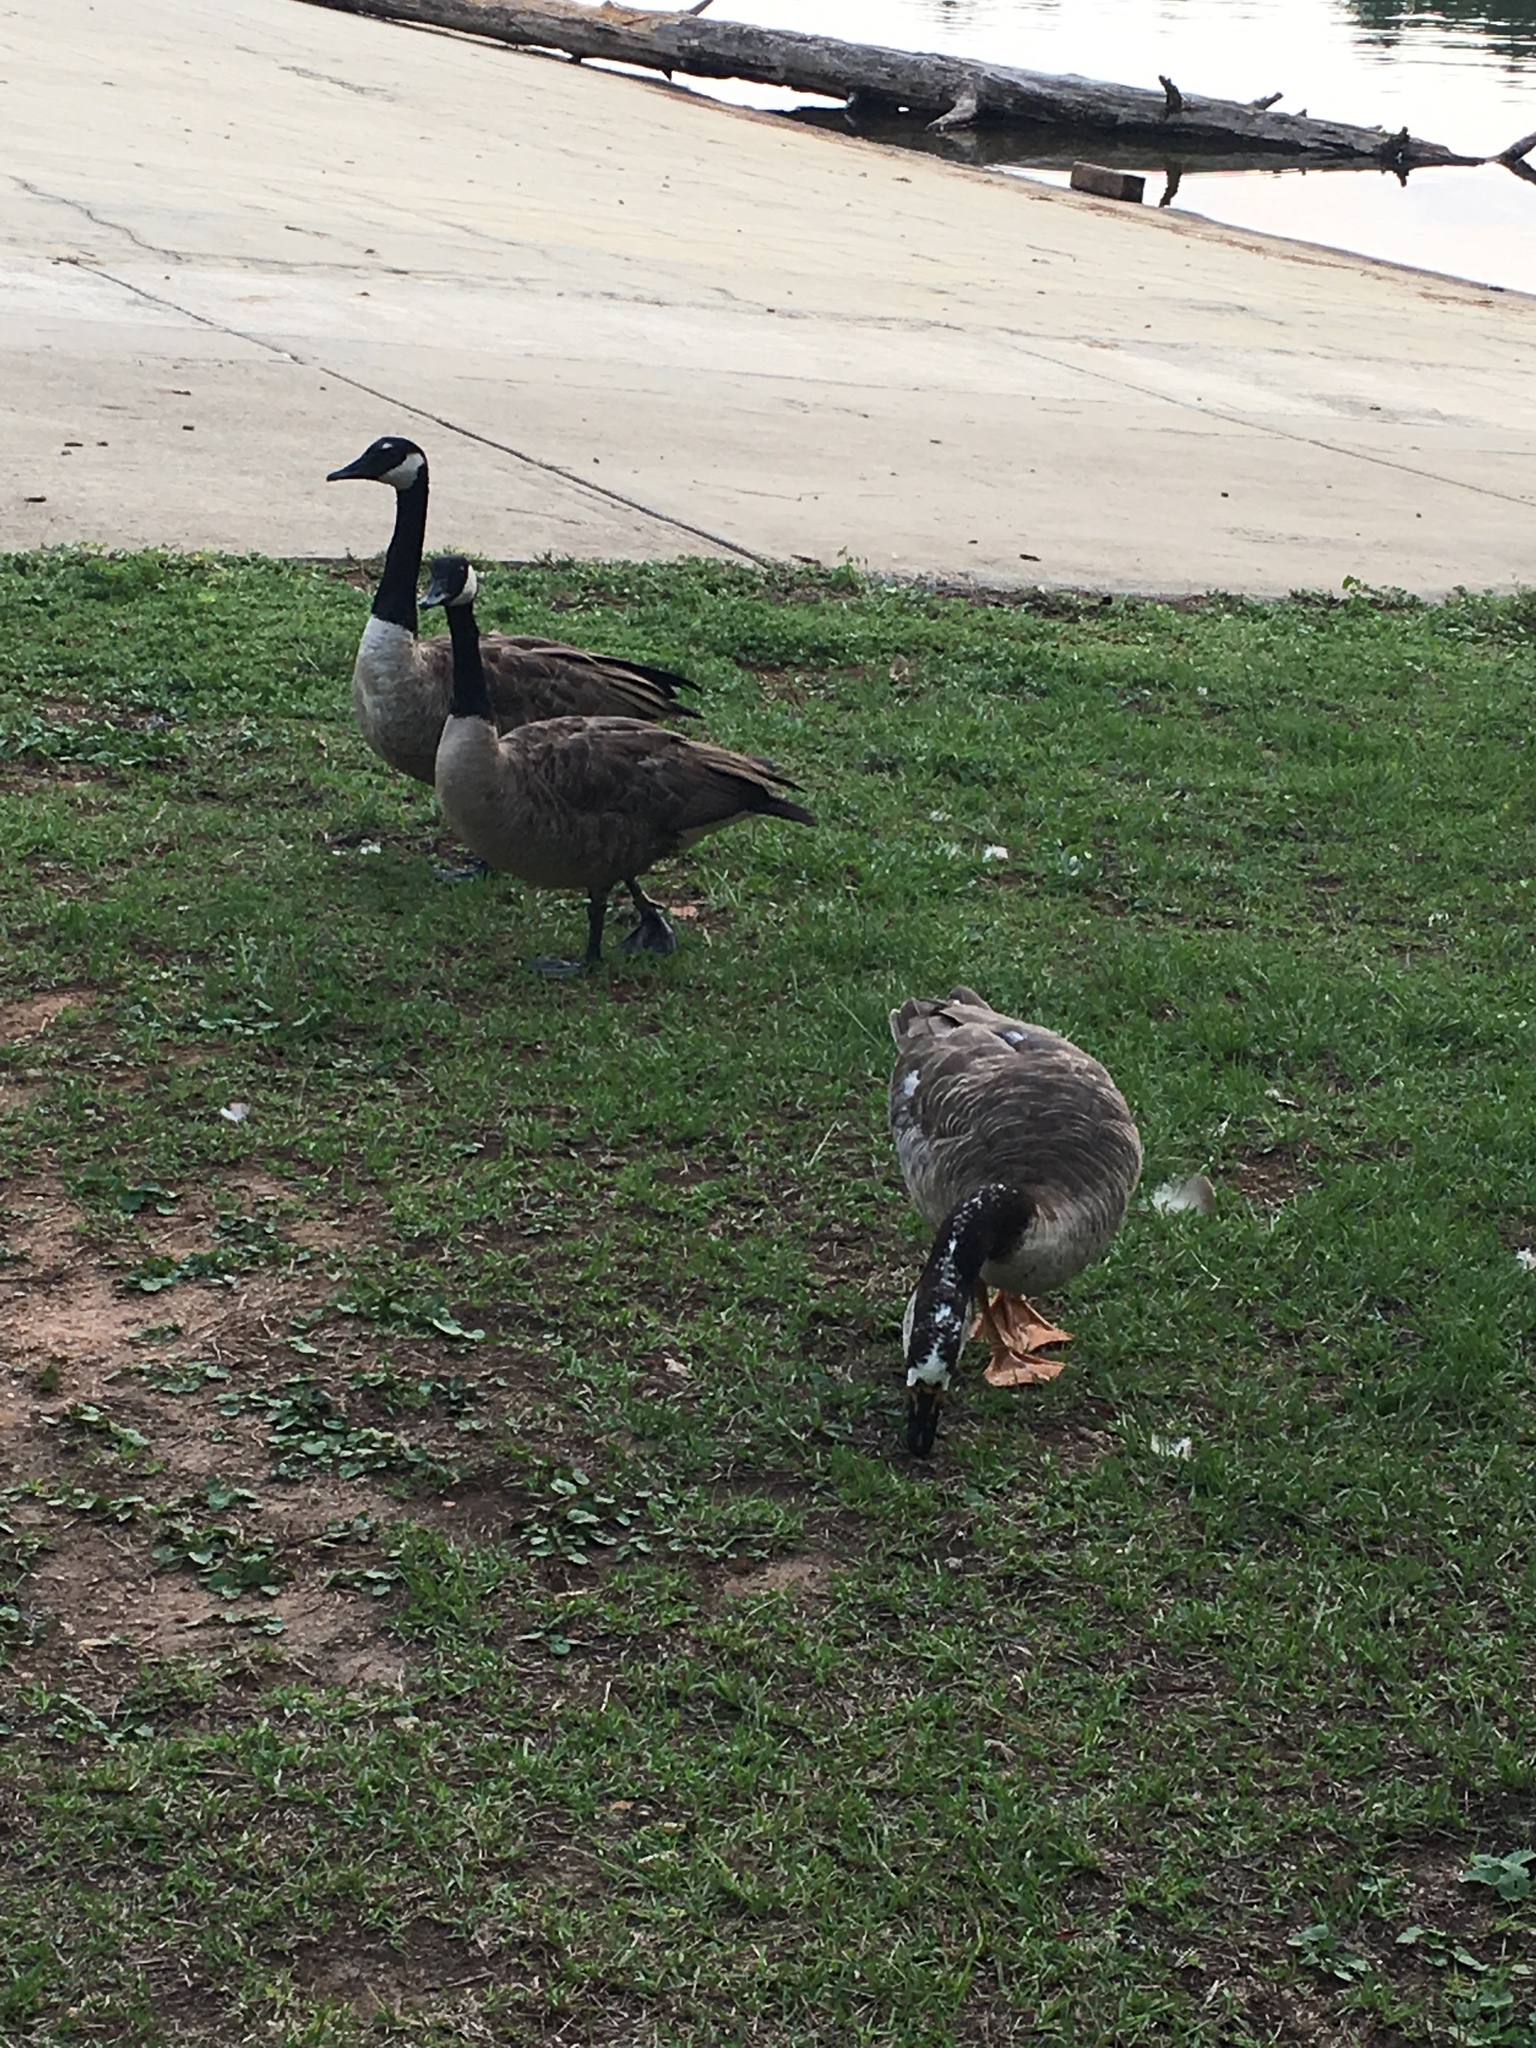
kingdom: Animalia
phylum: Chordata
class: Aves
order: Anseriformes
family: Anatidae
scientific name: Anatidae
